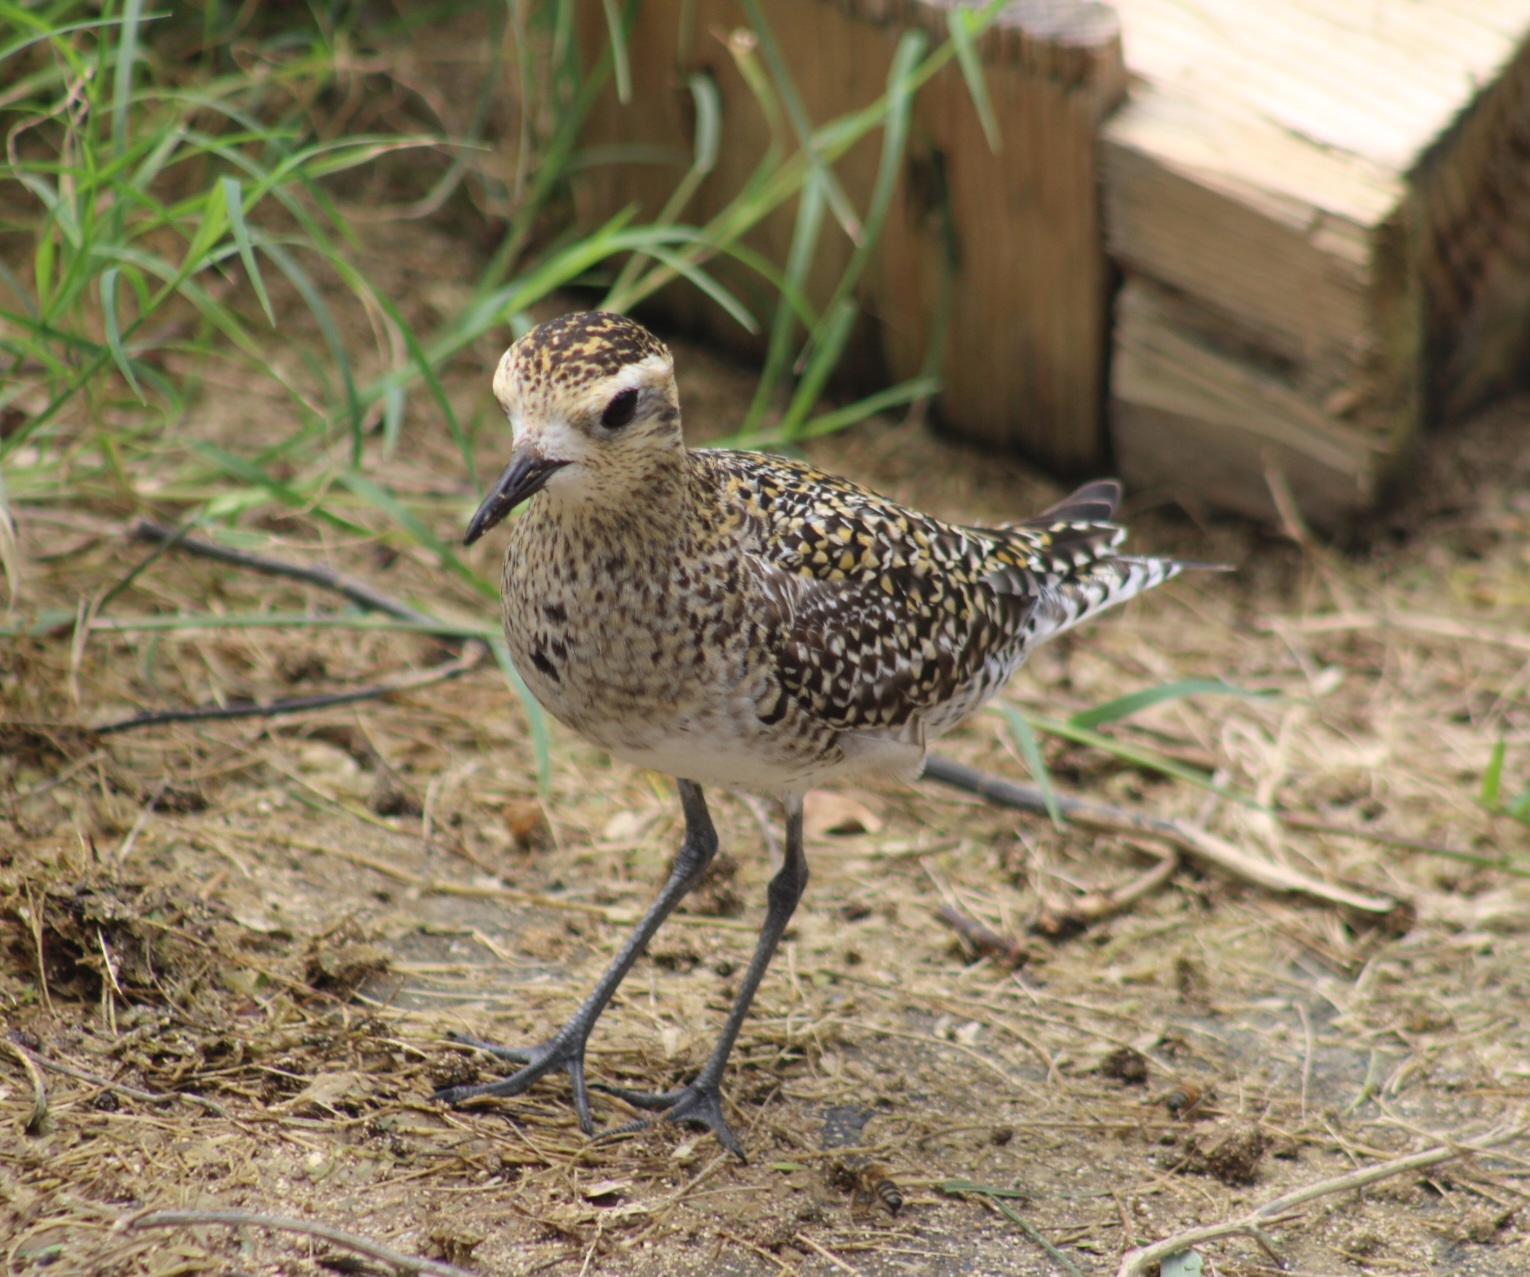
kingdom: Animalia
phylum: Chordata
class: Aves
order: Charadriiformes
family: Charadriidae
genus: Pluvialis
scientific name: Pluvialis fulva
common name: Pacific golden plover
